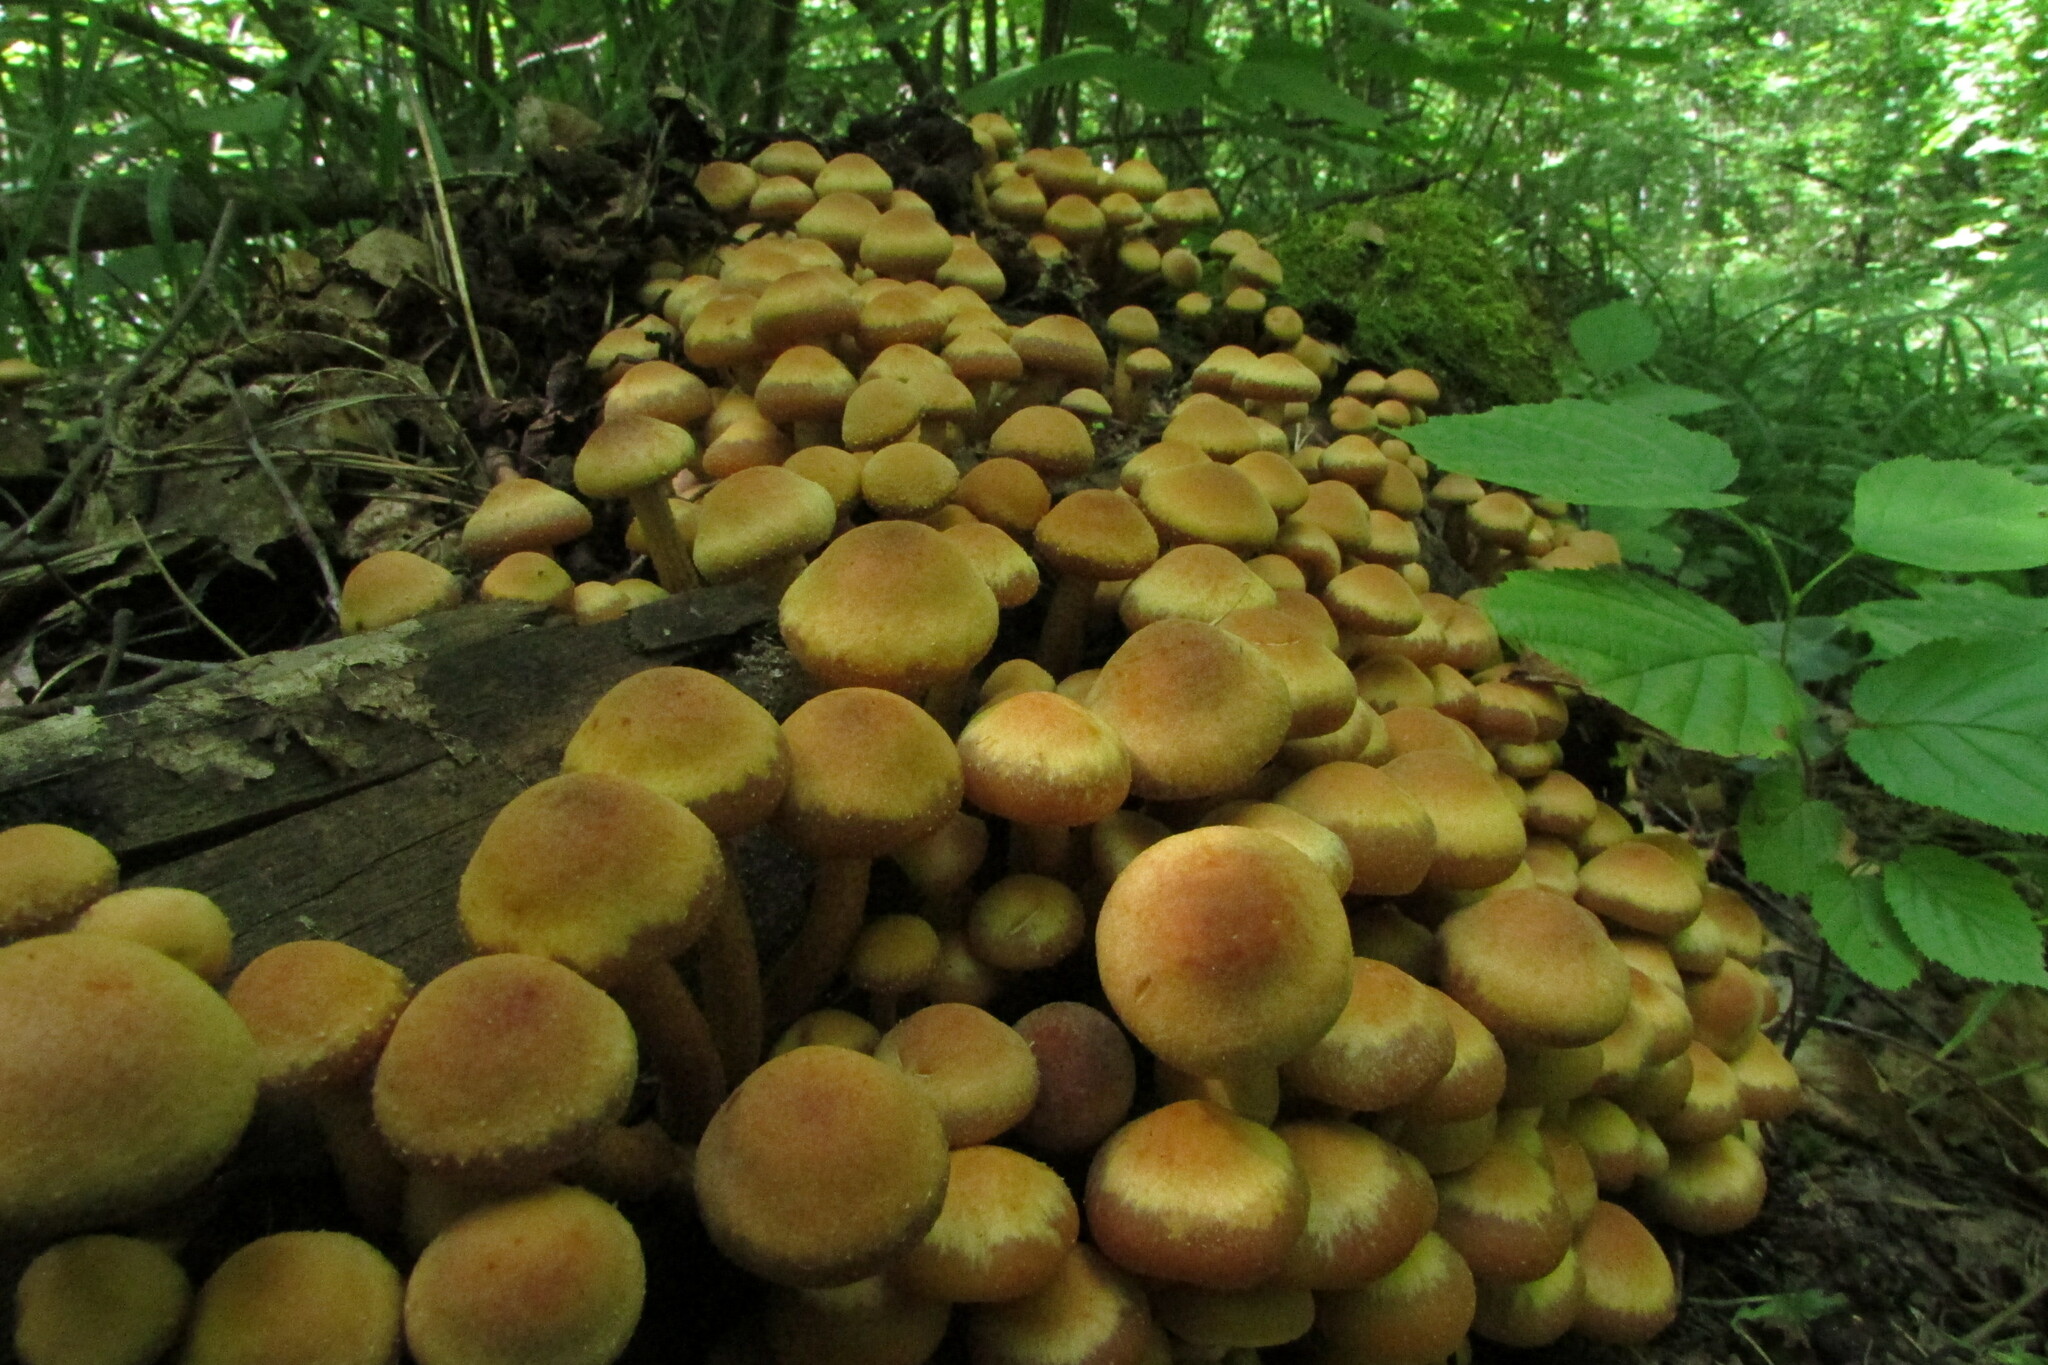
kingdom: Fungi
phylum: Basidiomycota
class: Agaricomycetes
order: Agaricales
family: Strophariaceae
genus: Kuehneromyces
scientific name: Kuehneromyces mutabilis
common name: Sheathed woodtuft
